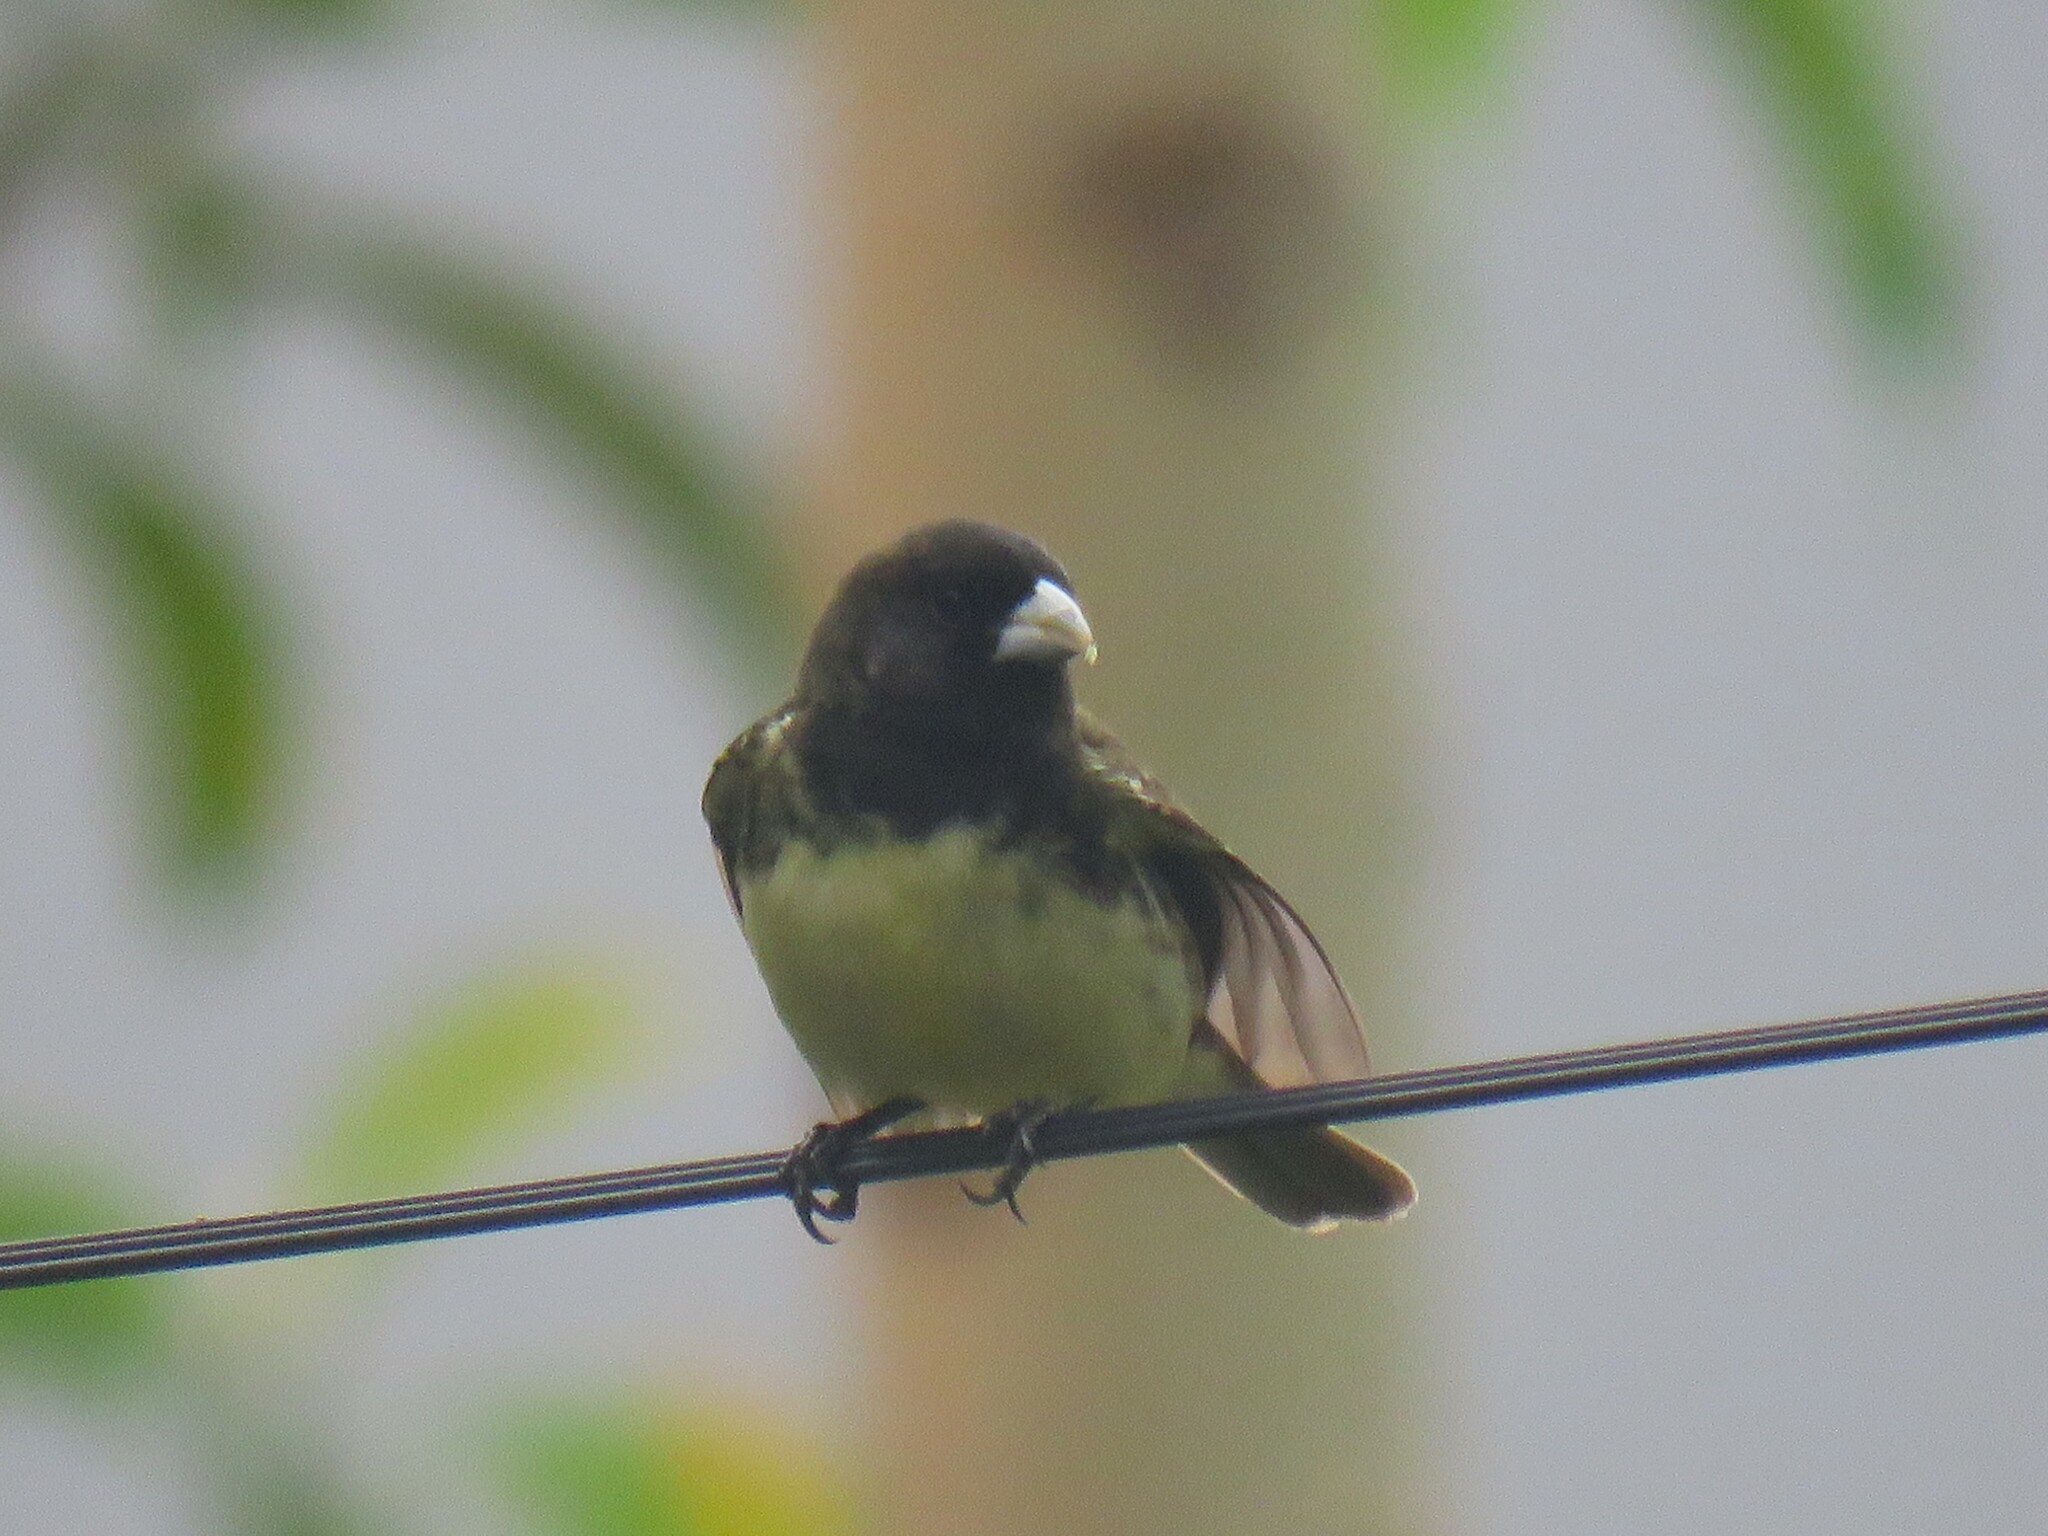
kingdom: Animalia
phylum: Chordata
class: Aves
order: Passeriformes
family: Thraupidae
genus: Sporophila
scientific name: Sporophila nigricollis
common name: Yellow-bellied seedeater
